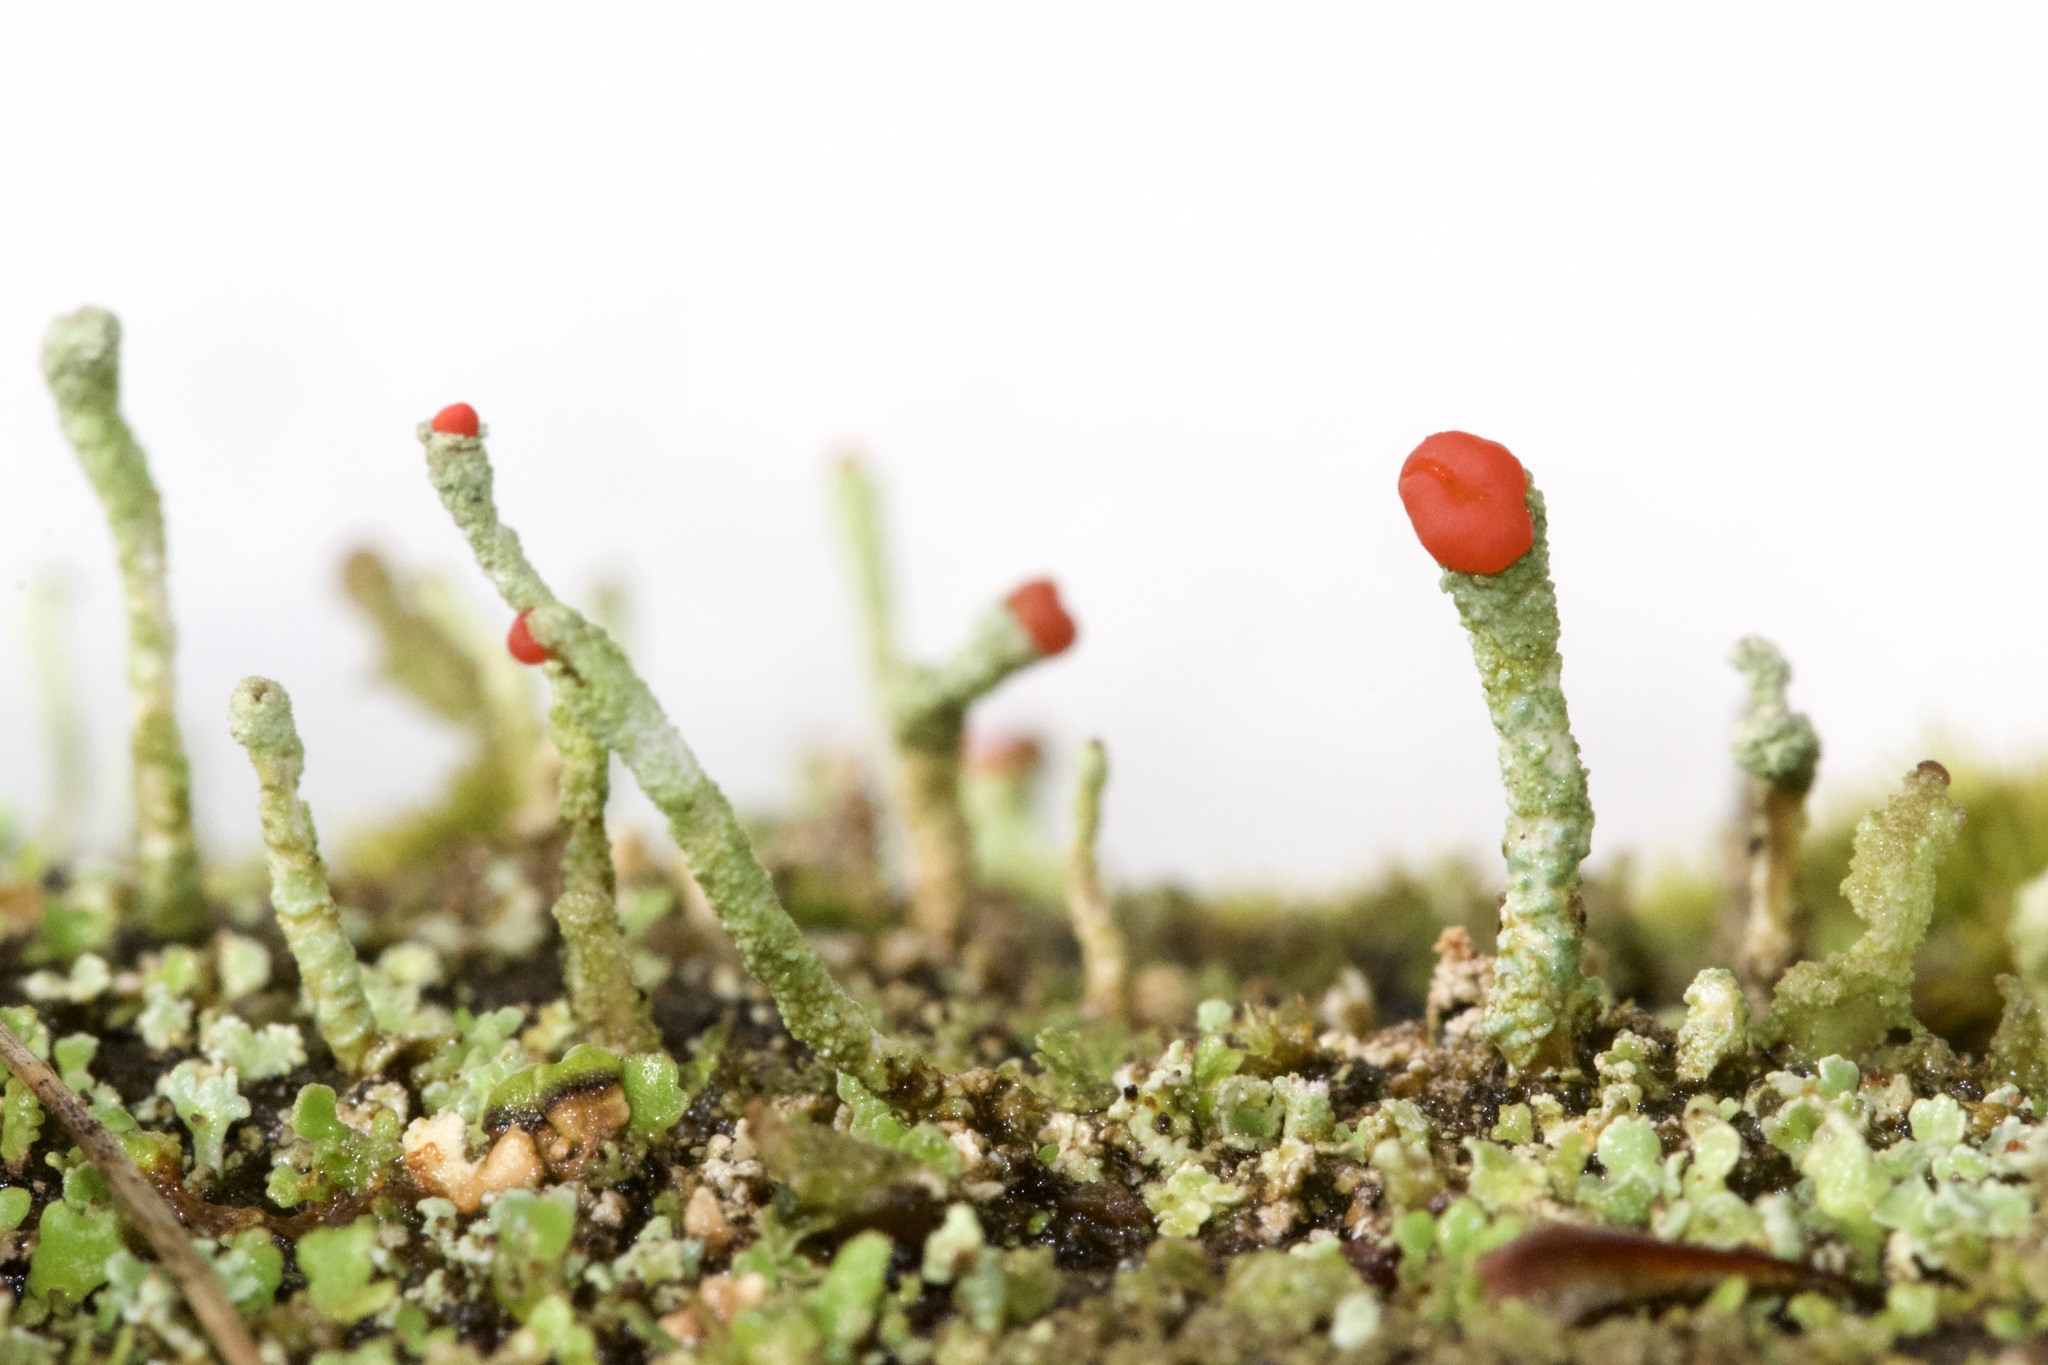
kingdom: Fungi
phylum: Ascomycota
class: Lecanoromycetes
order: Lecanorales
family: Cladoniaceae
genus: Cladonia
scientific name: Cladonia bacillaris
